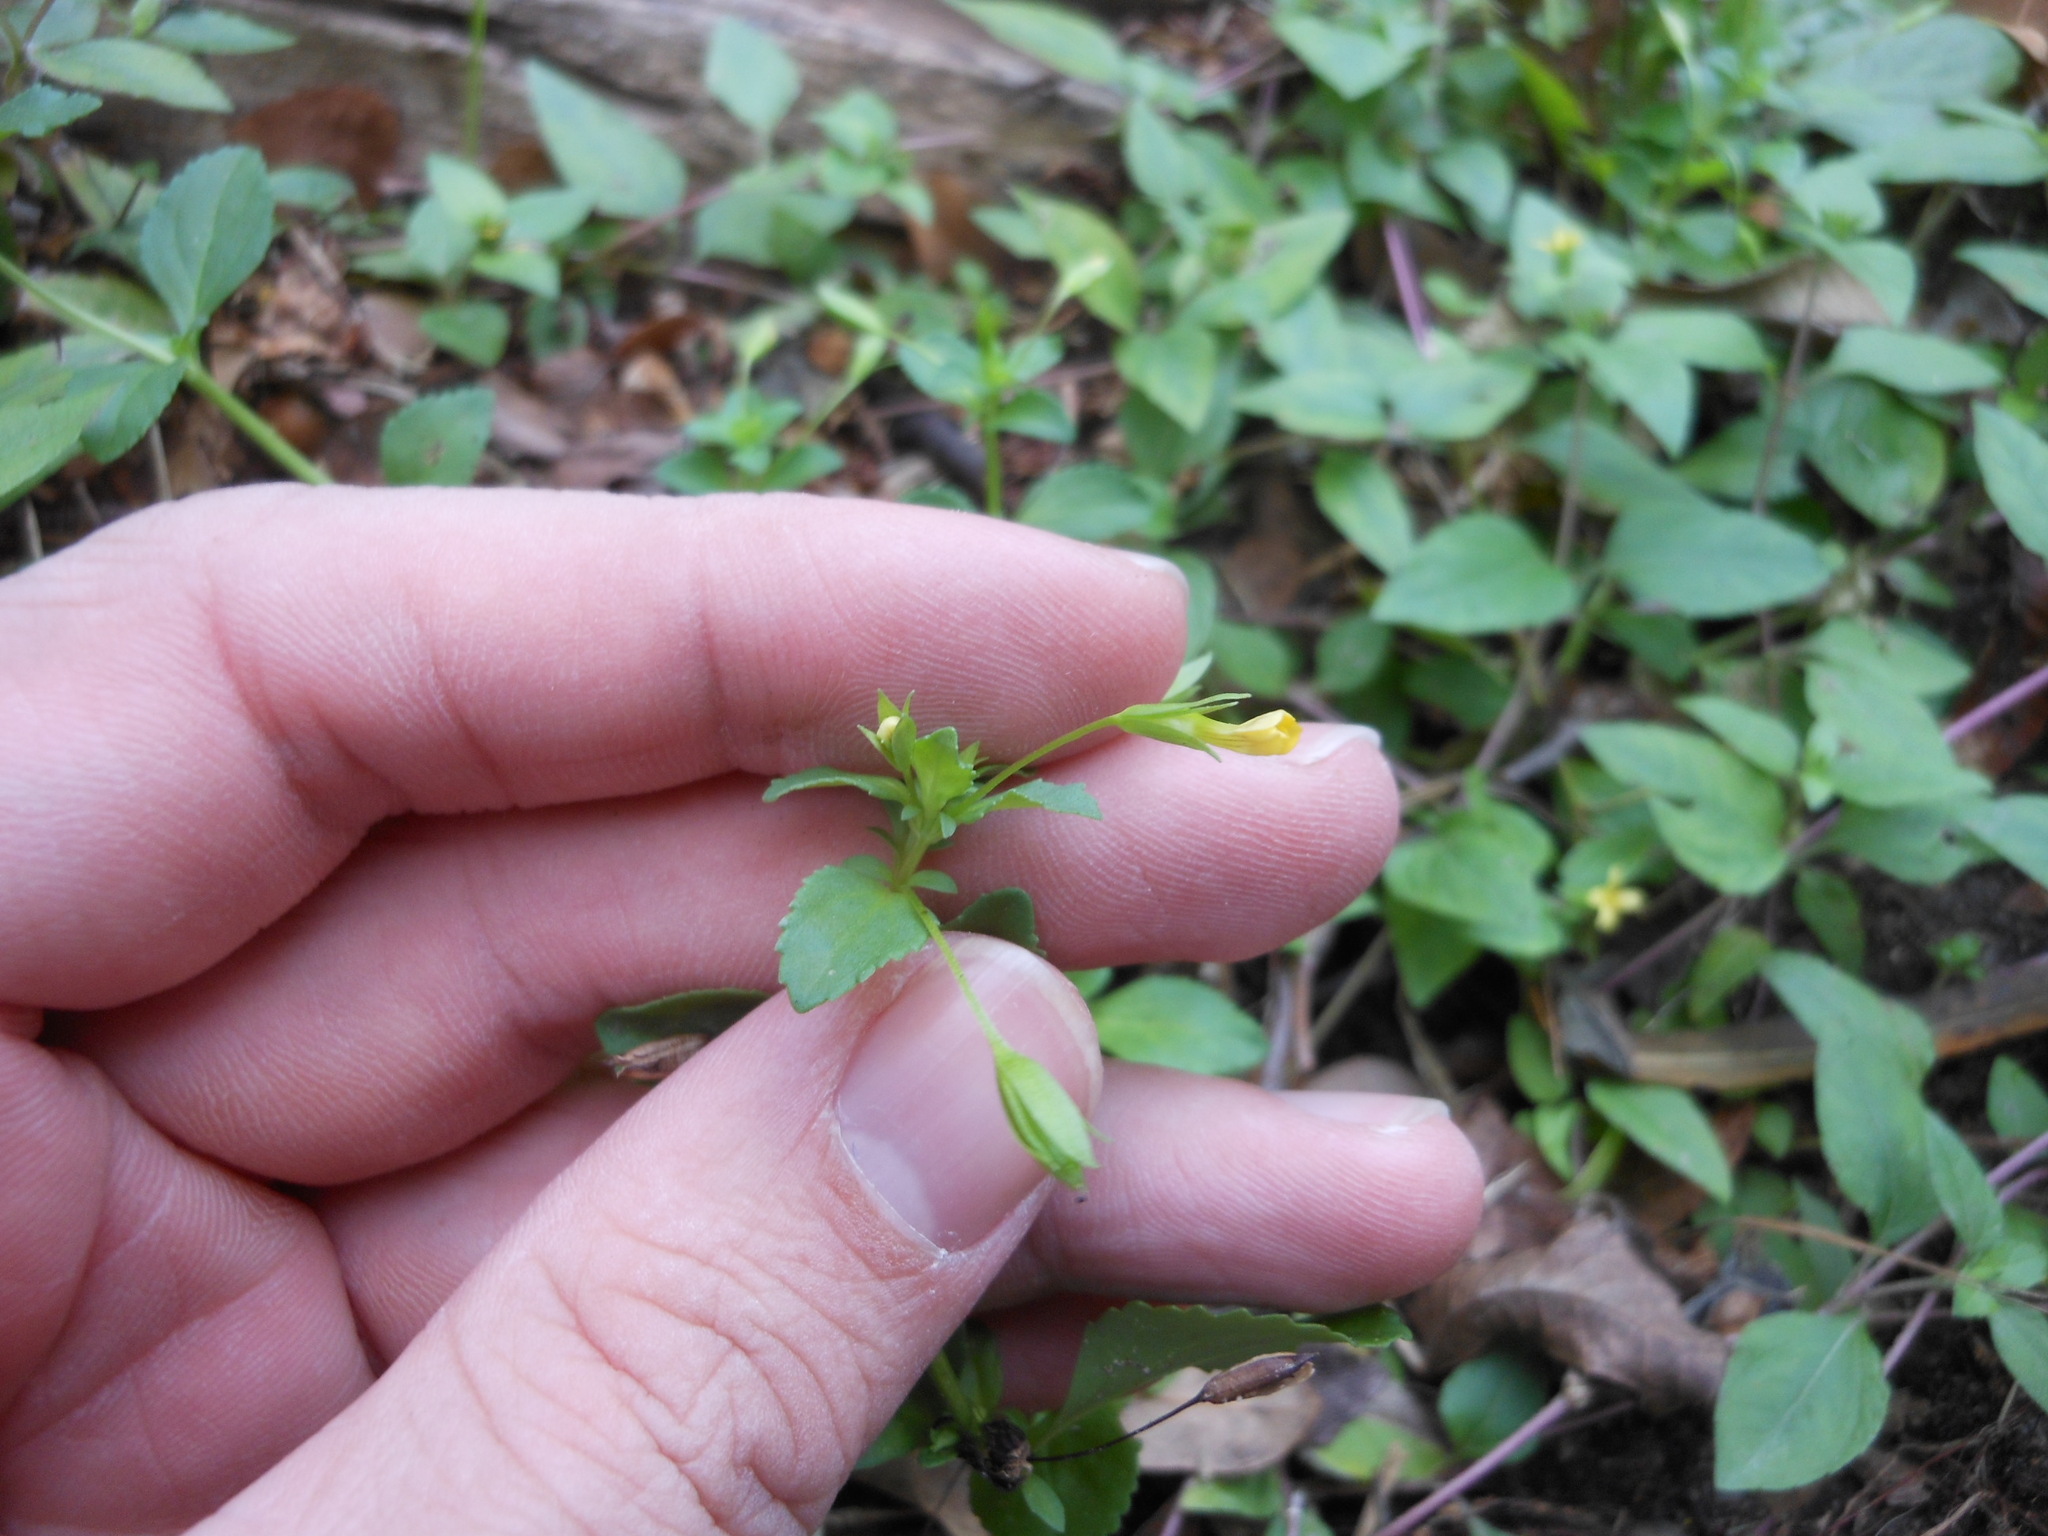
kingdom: Plantae
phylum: Tracheophyta
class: Magnoliopsida
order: Lamiales
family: Plantaginaceae
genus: Mecardonia
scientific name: Mecardonia procumbens
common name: Baby jump-up
